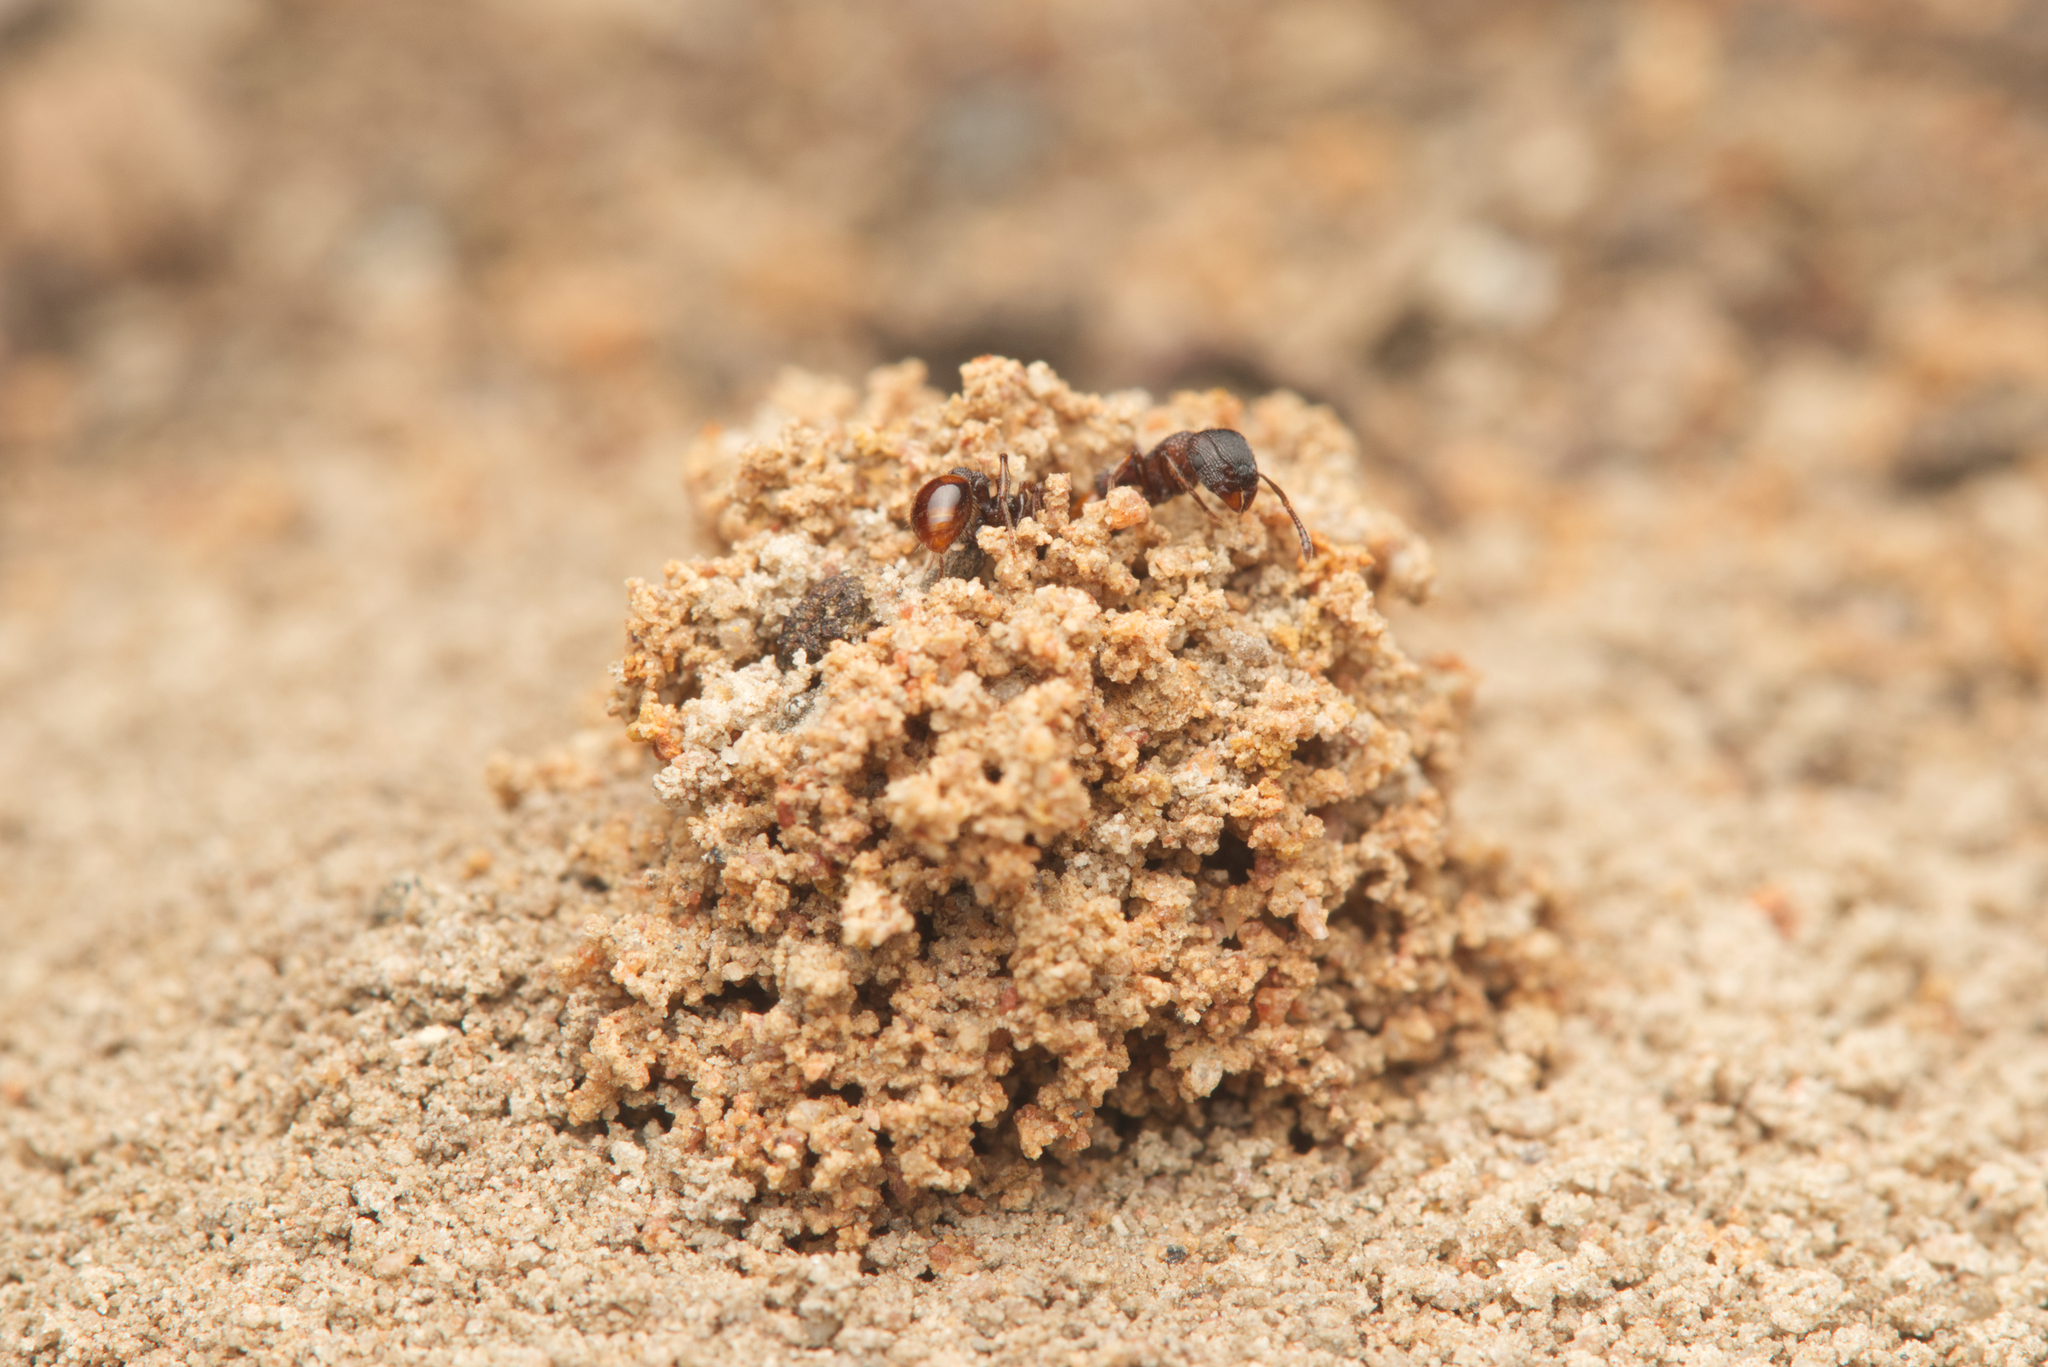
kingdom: Animalia
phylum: Arthropoda
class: Insecta
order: Hymenoptera
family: Formicidae
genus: Tetramorium
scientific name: Tetramorium impressum
